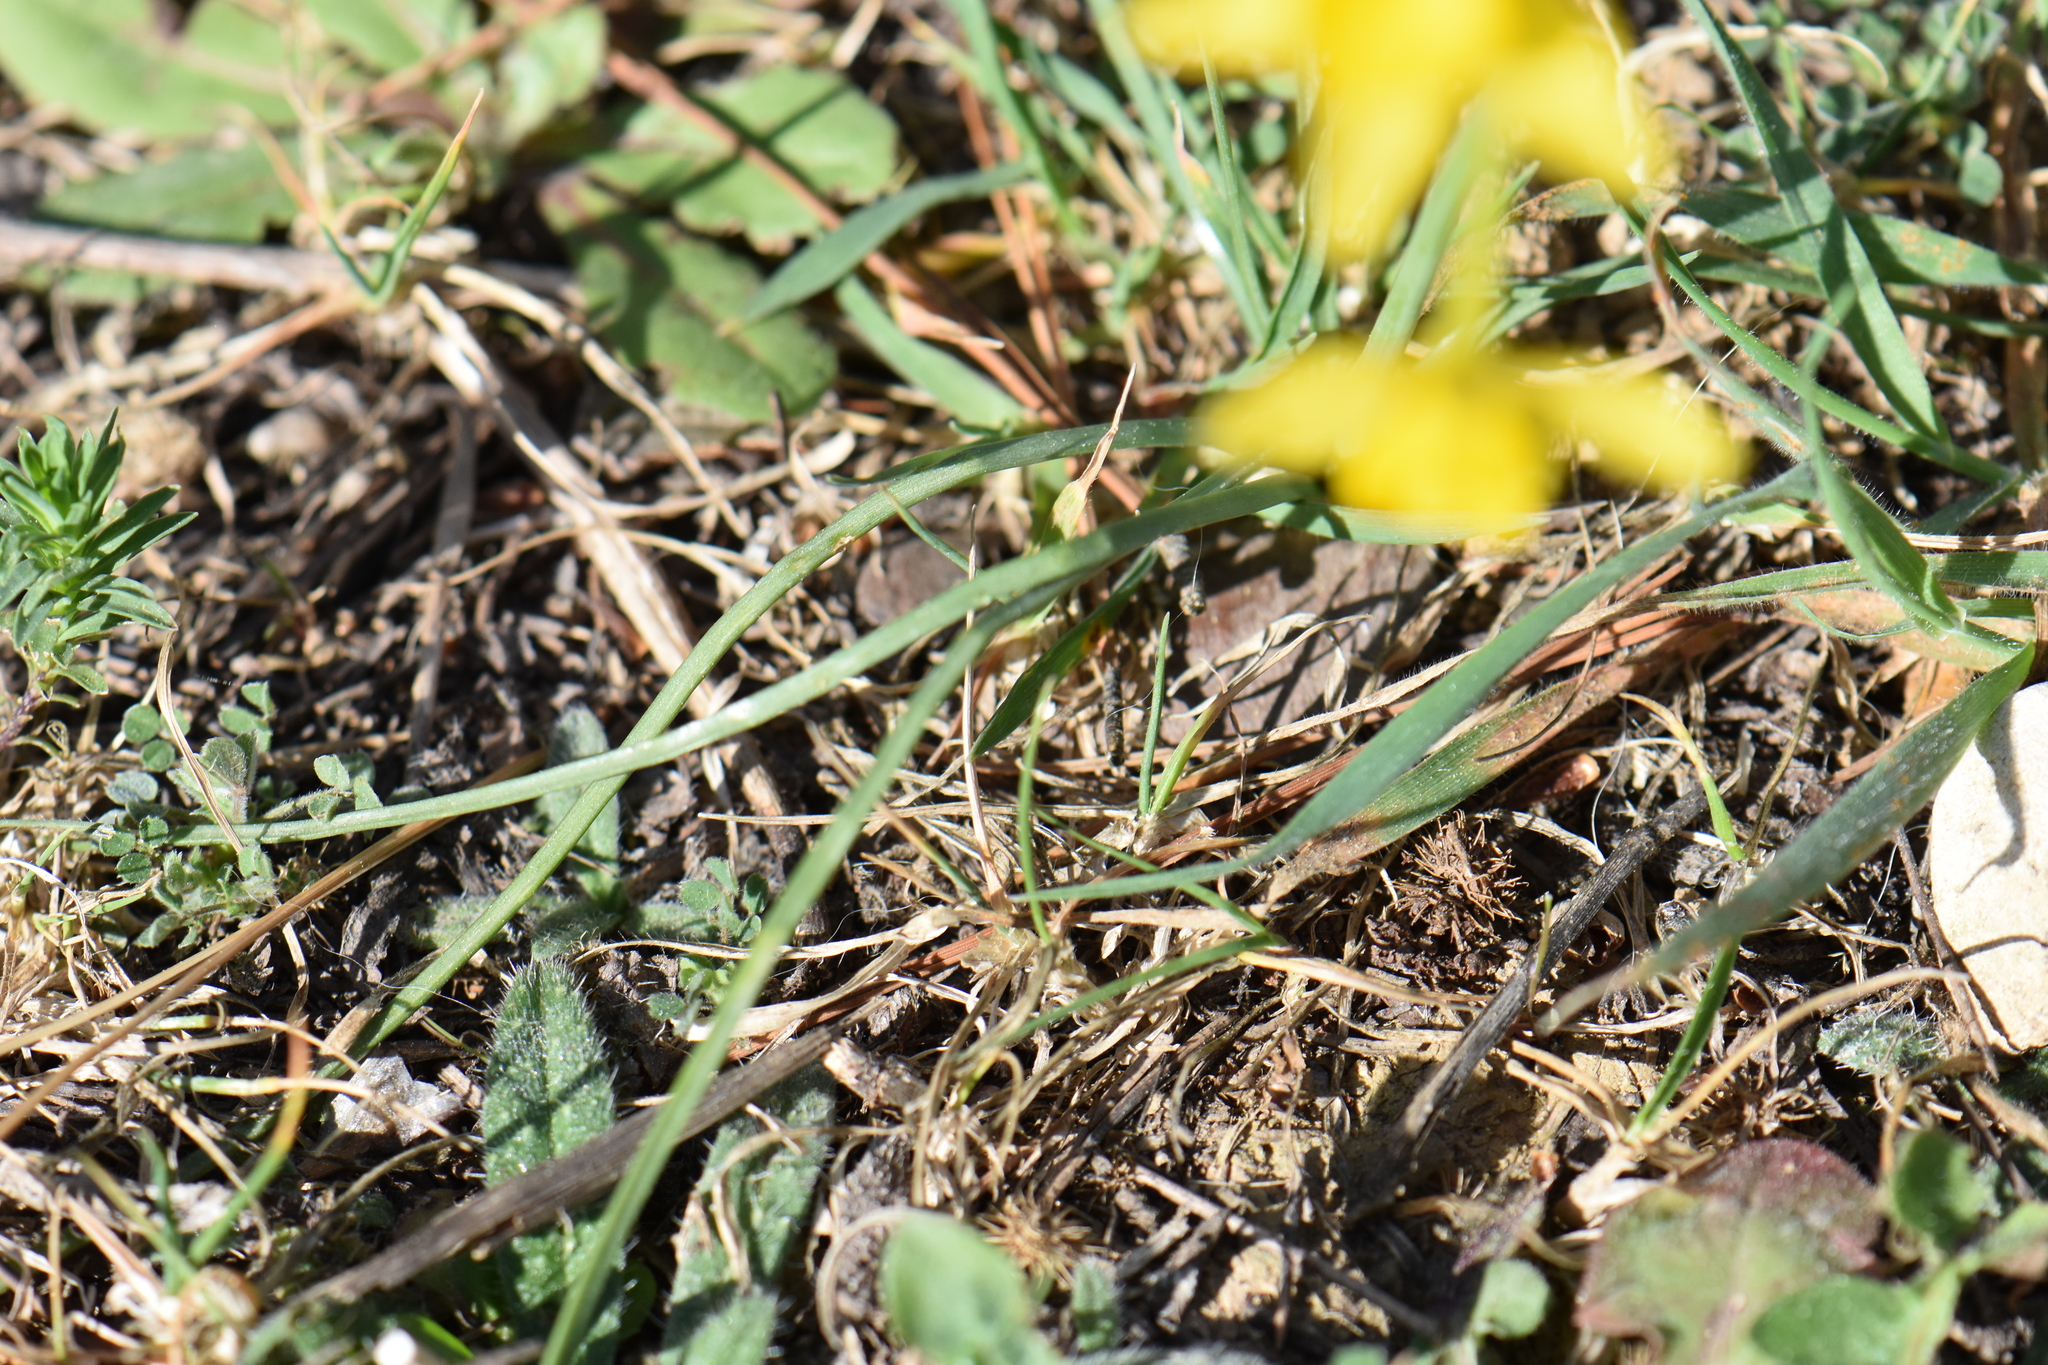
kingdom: Plantae
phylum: Tracheophyta
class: Liliopsida
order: Asparagales
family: Amaryllidaceae
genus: Narcissus
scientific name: Narcissus assoanus
